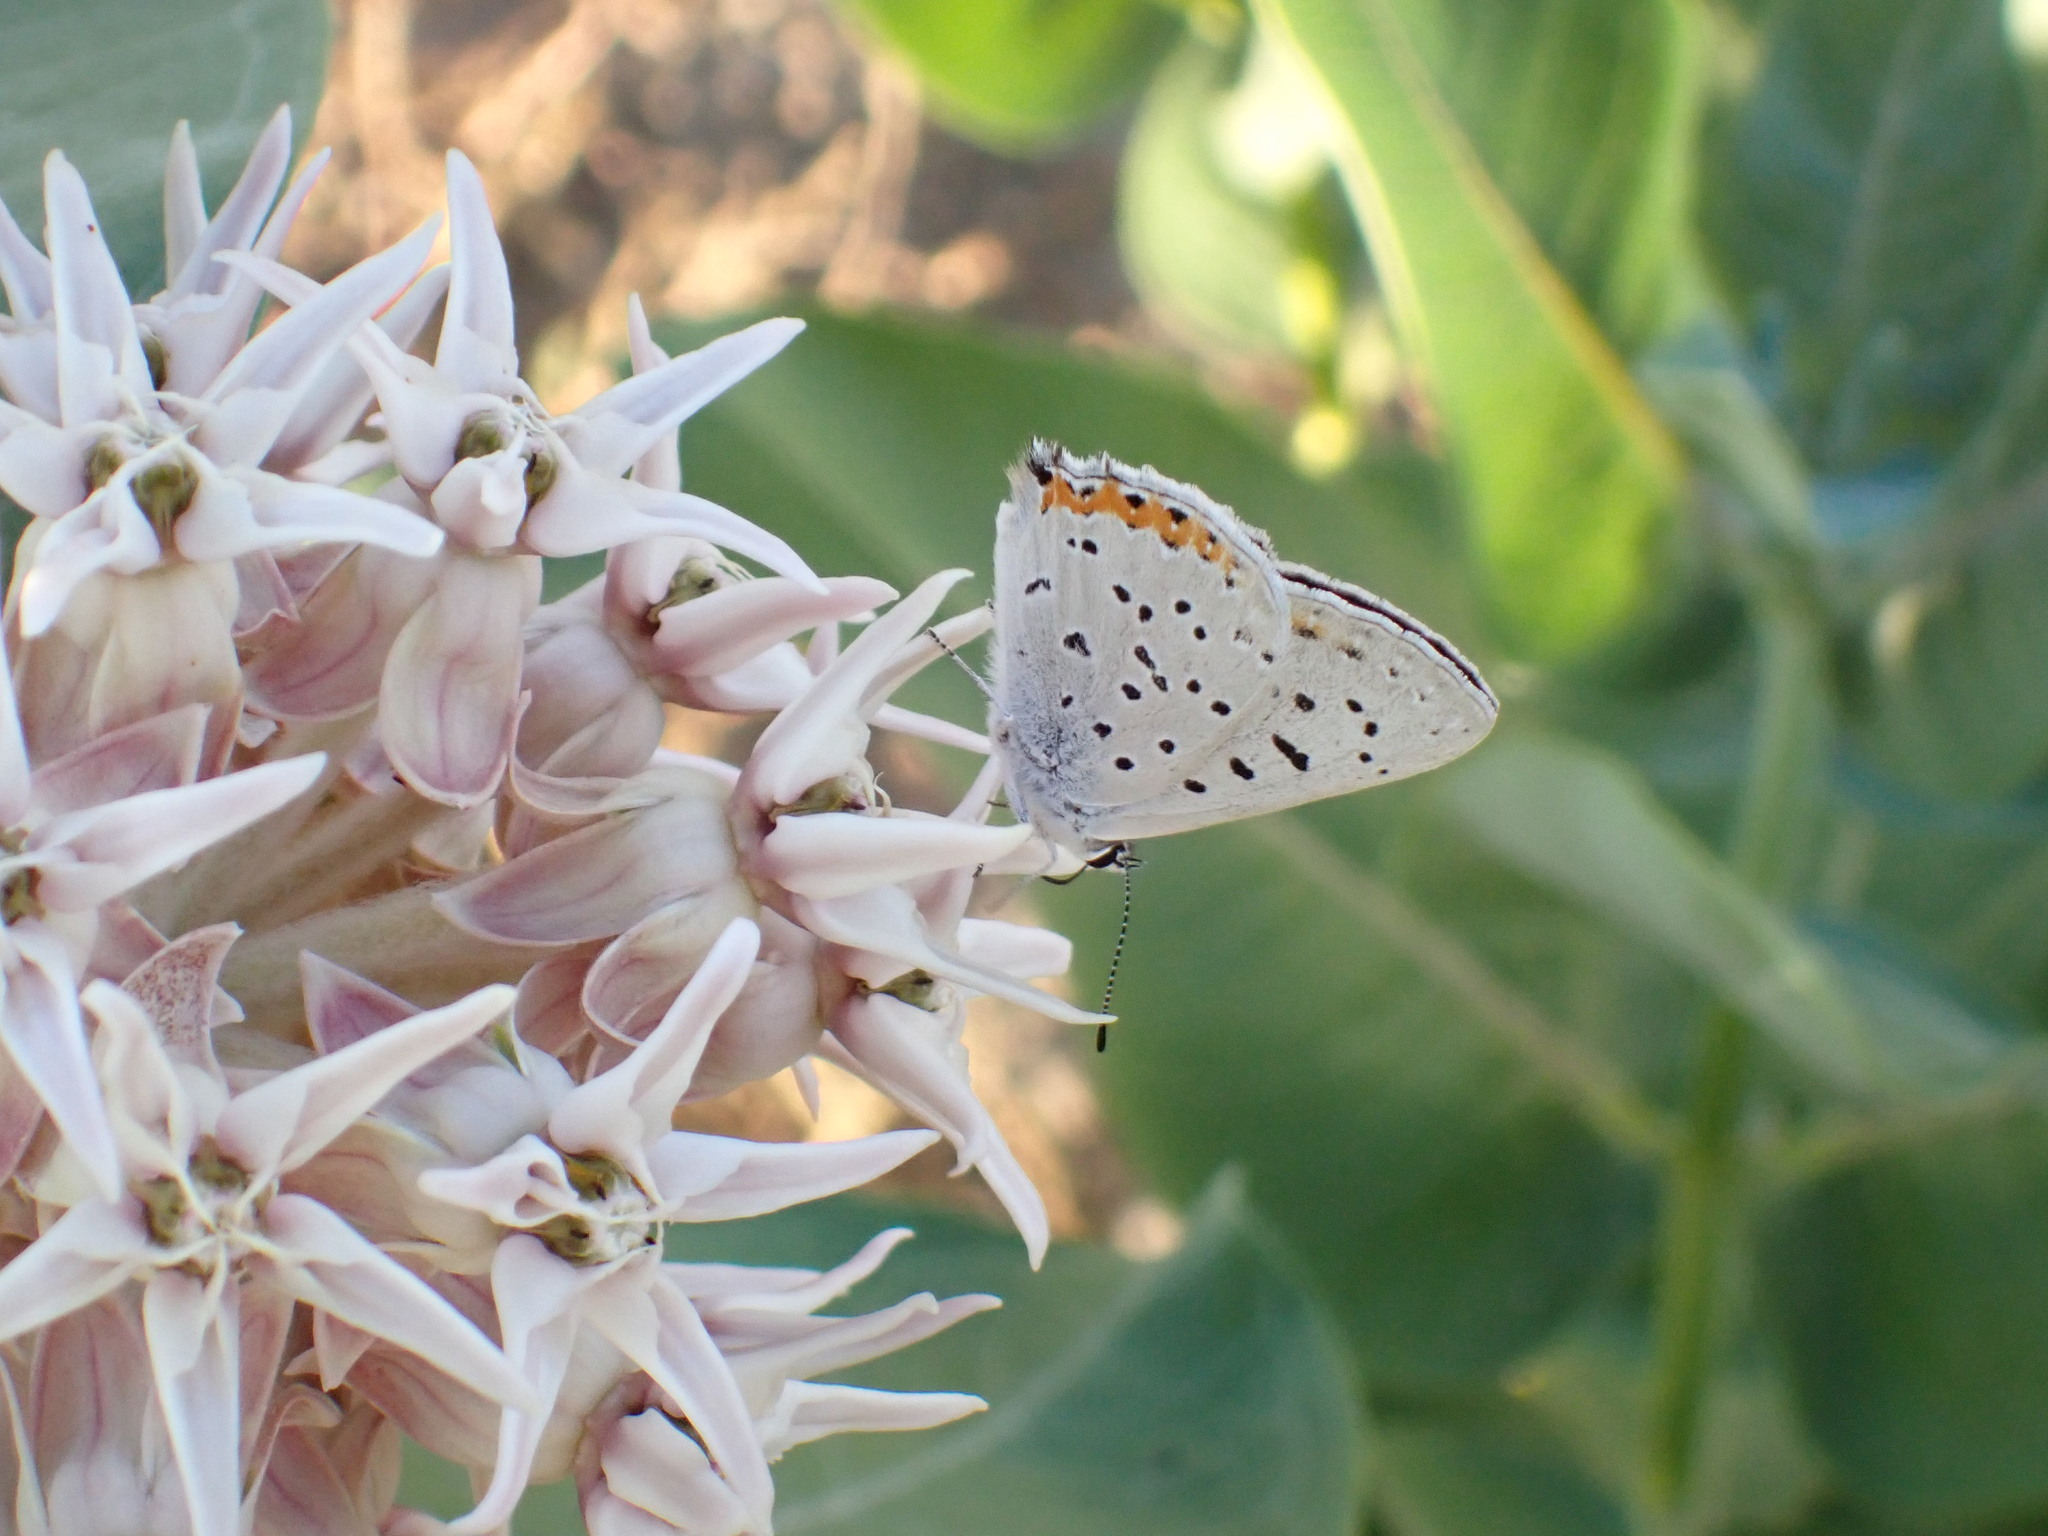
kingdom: Animalia
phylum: Arthropoda
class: Insecta
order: Lepidoptera
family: Lycaenidae
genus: Tharsalea
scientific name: Tharsalea dione
